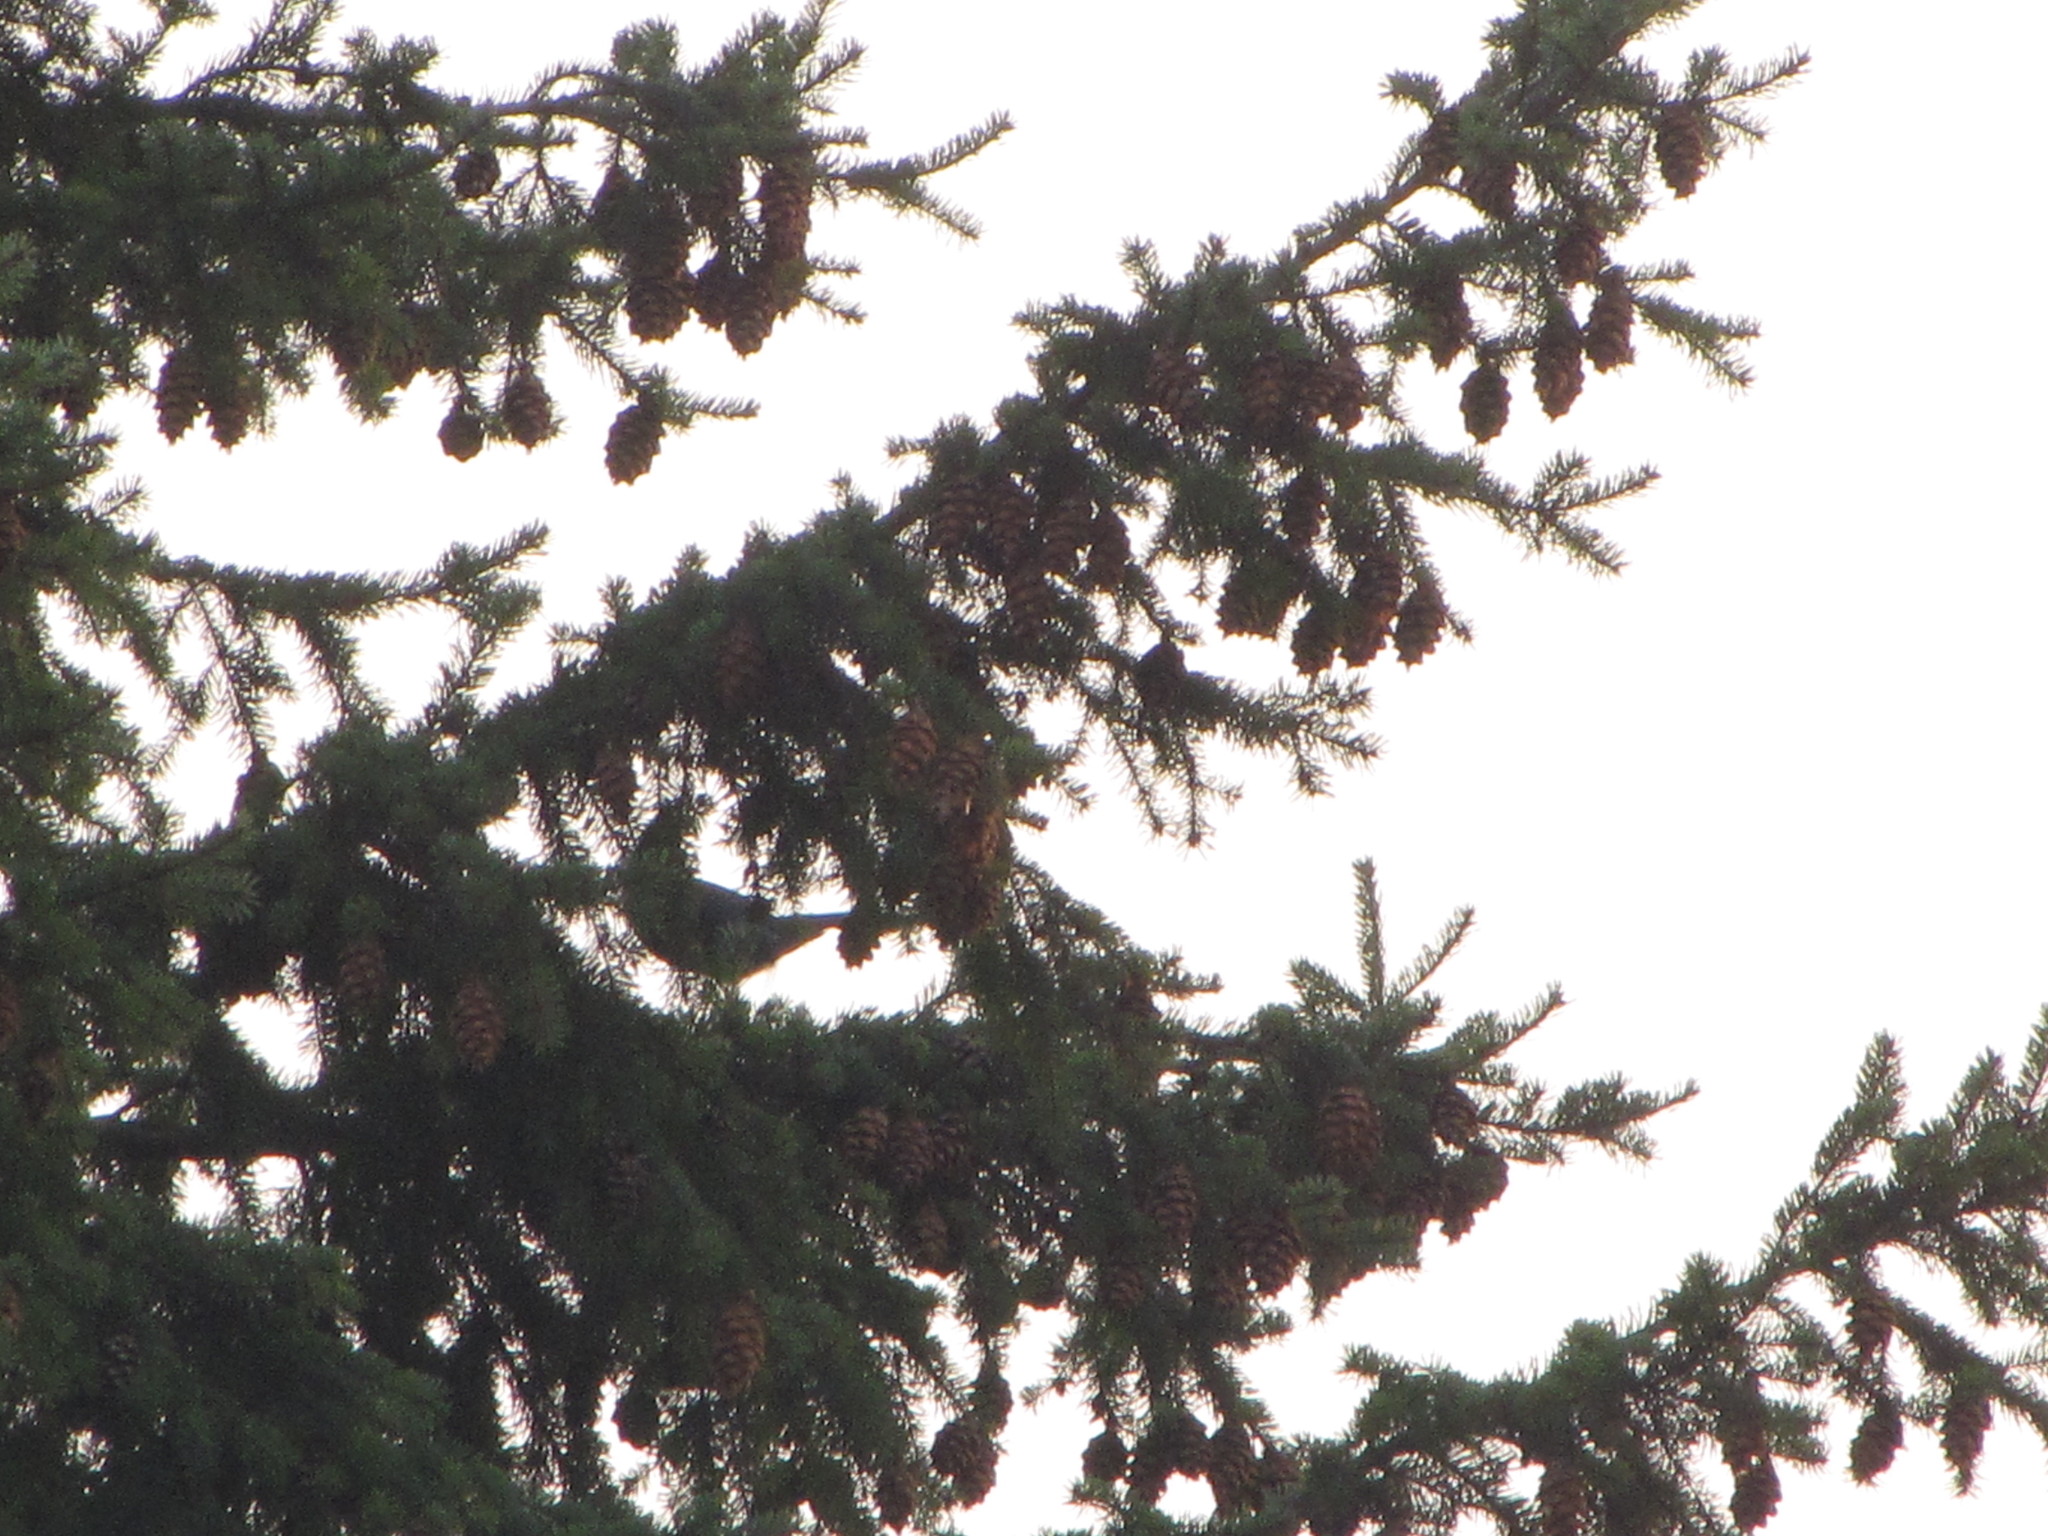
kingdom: Animalia
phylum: Chordata
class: Aves
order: Passeriformes
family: Corvidae
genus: Cyanocitta
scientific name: Cyanocitta stelleri
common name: Steller's jay
